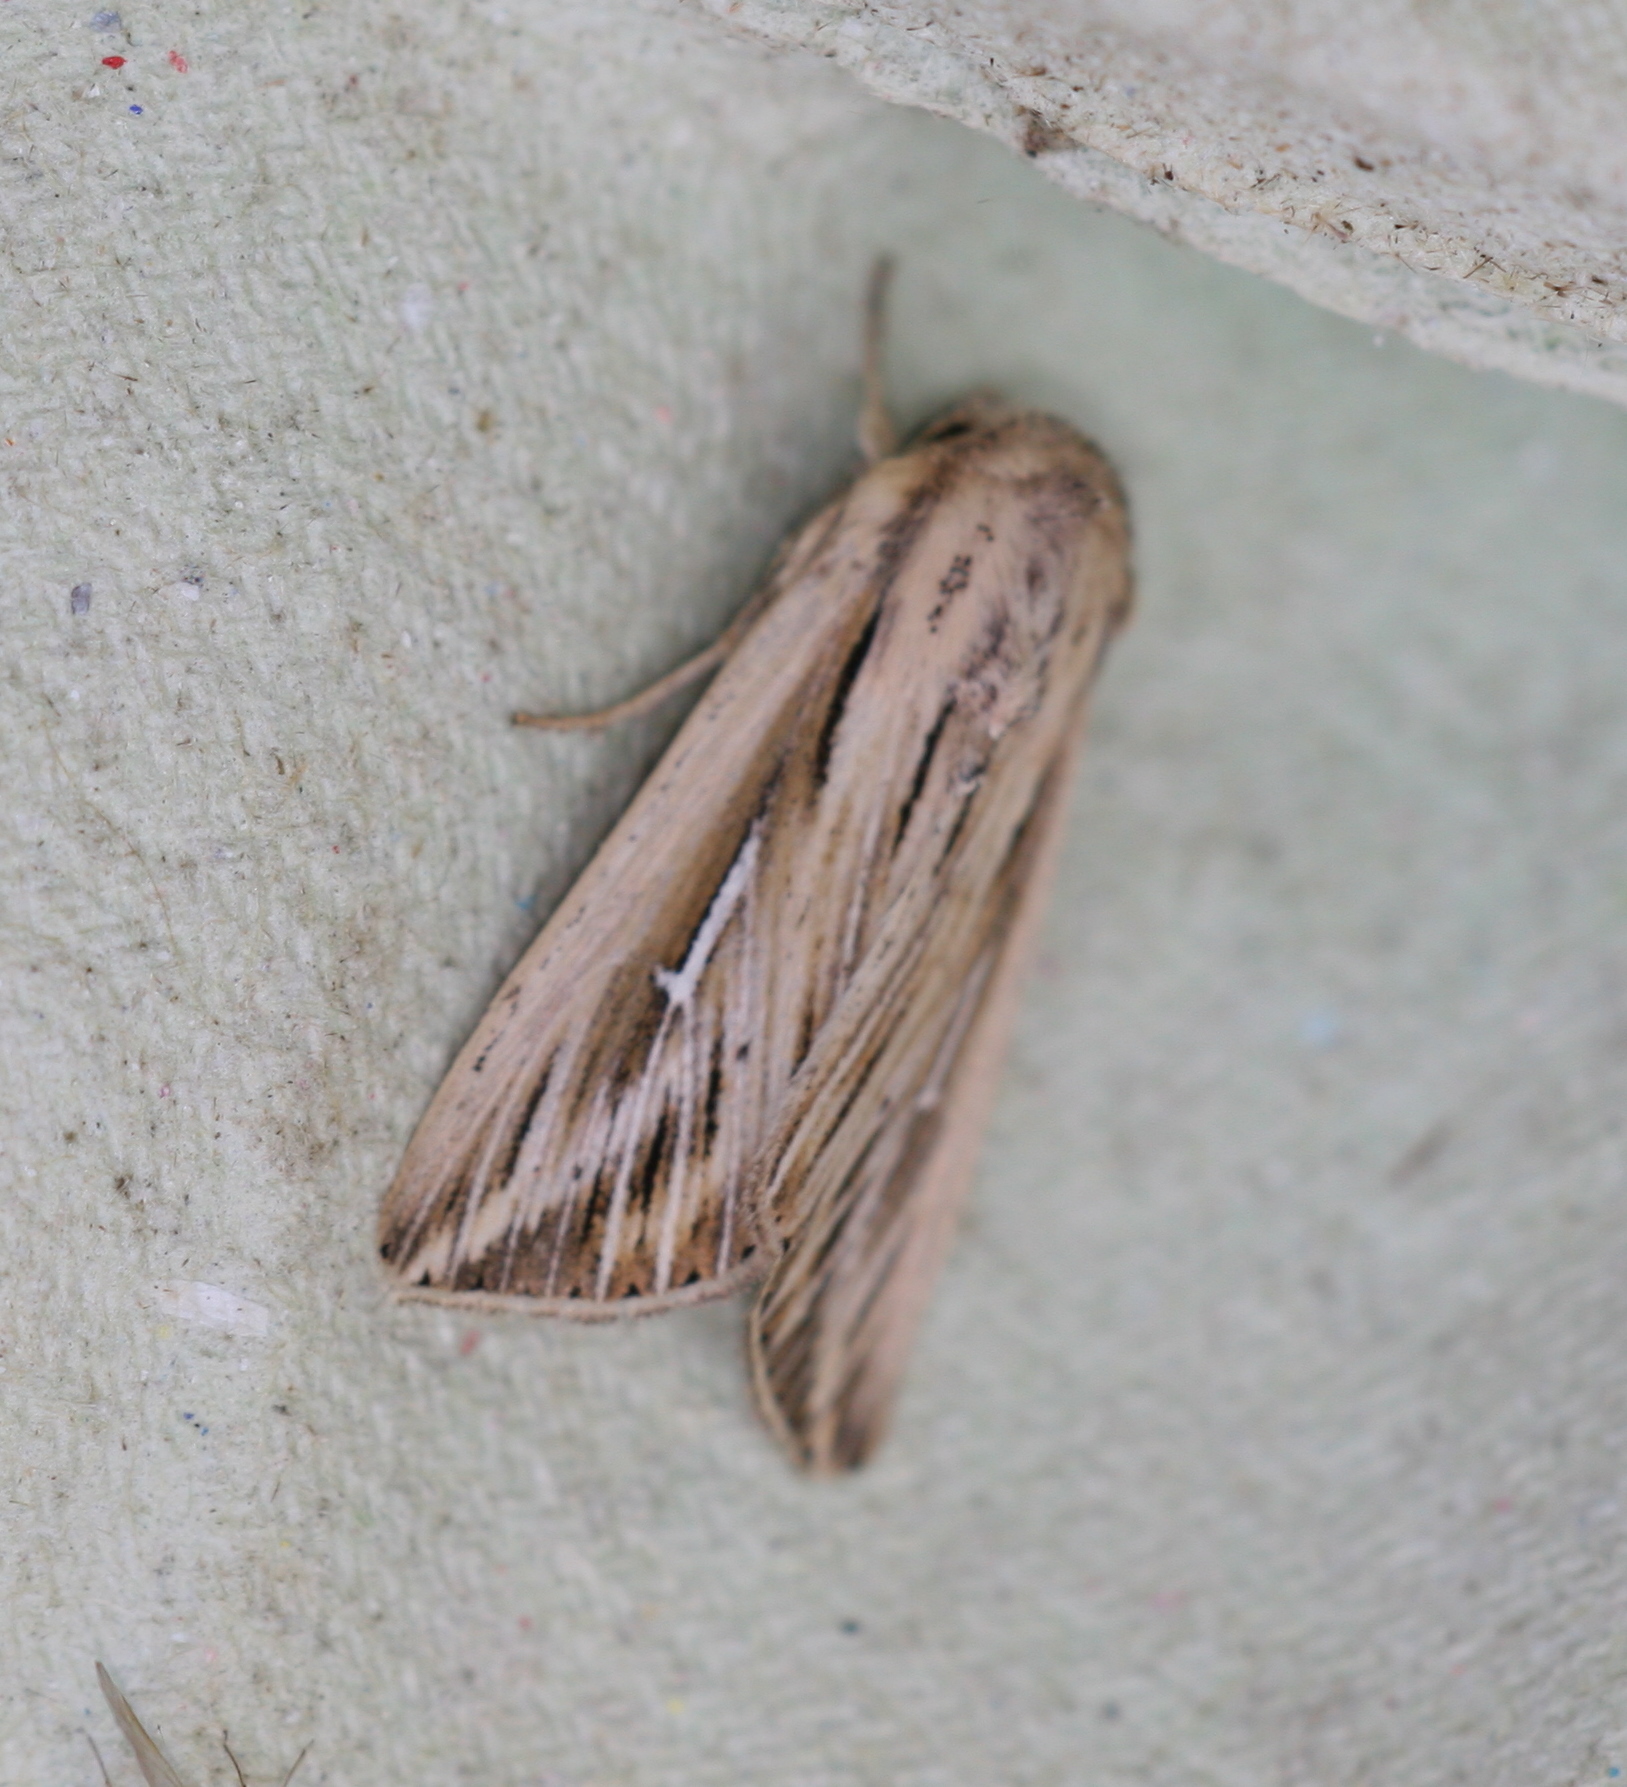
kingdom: Animalia
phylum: Arthropoda
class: Insecta
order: Lepidoptera
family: Noctuidae
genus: Mythimna
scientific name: Mythimna l-album
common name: L-album wainscot
